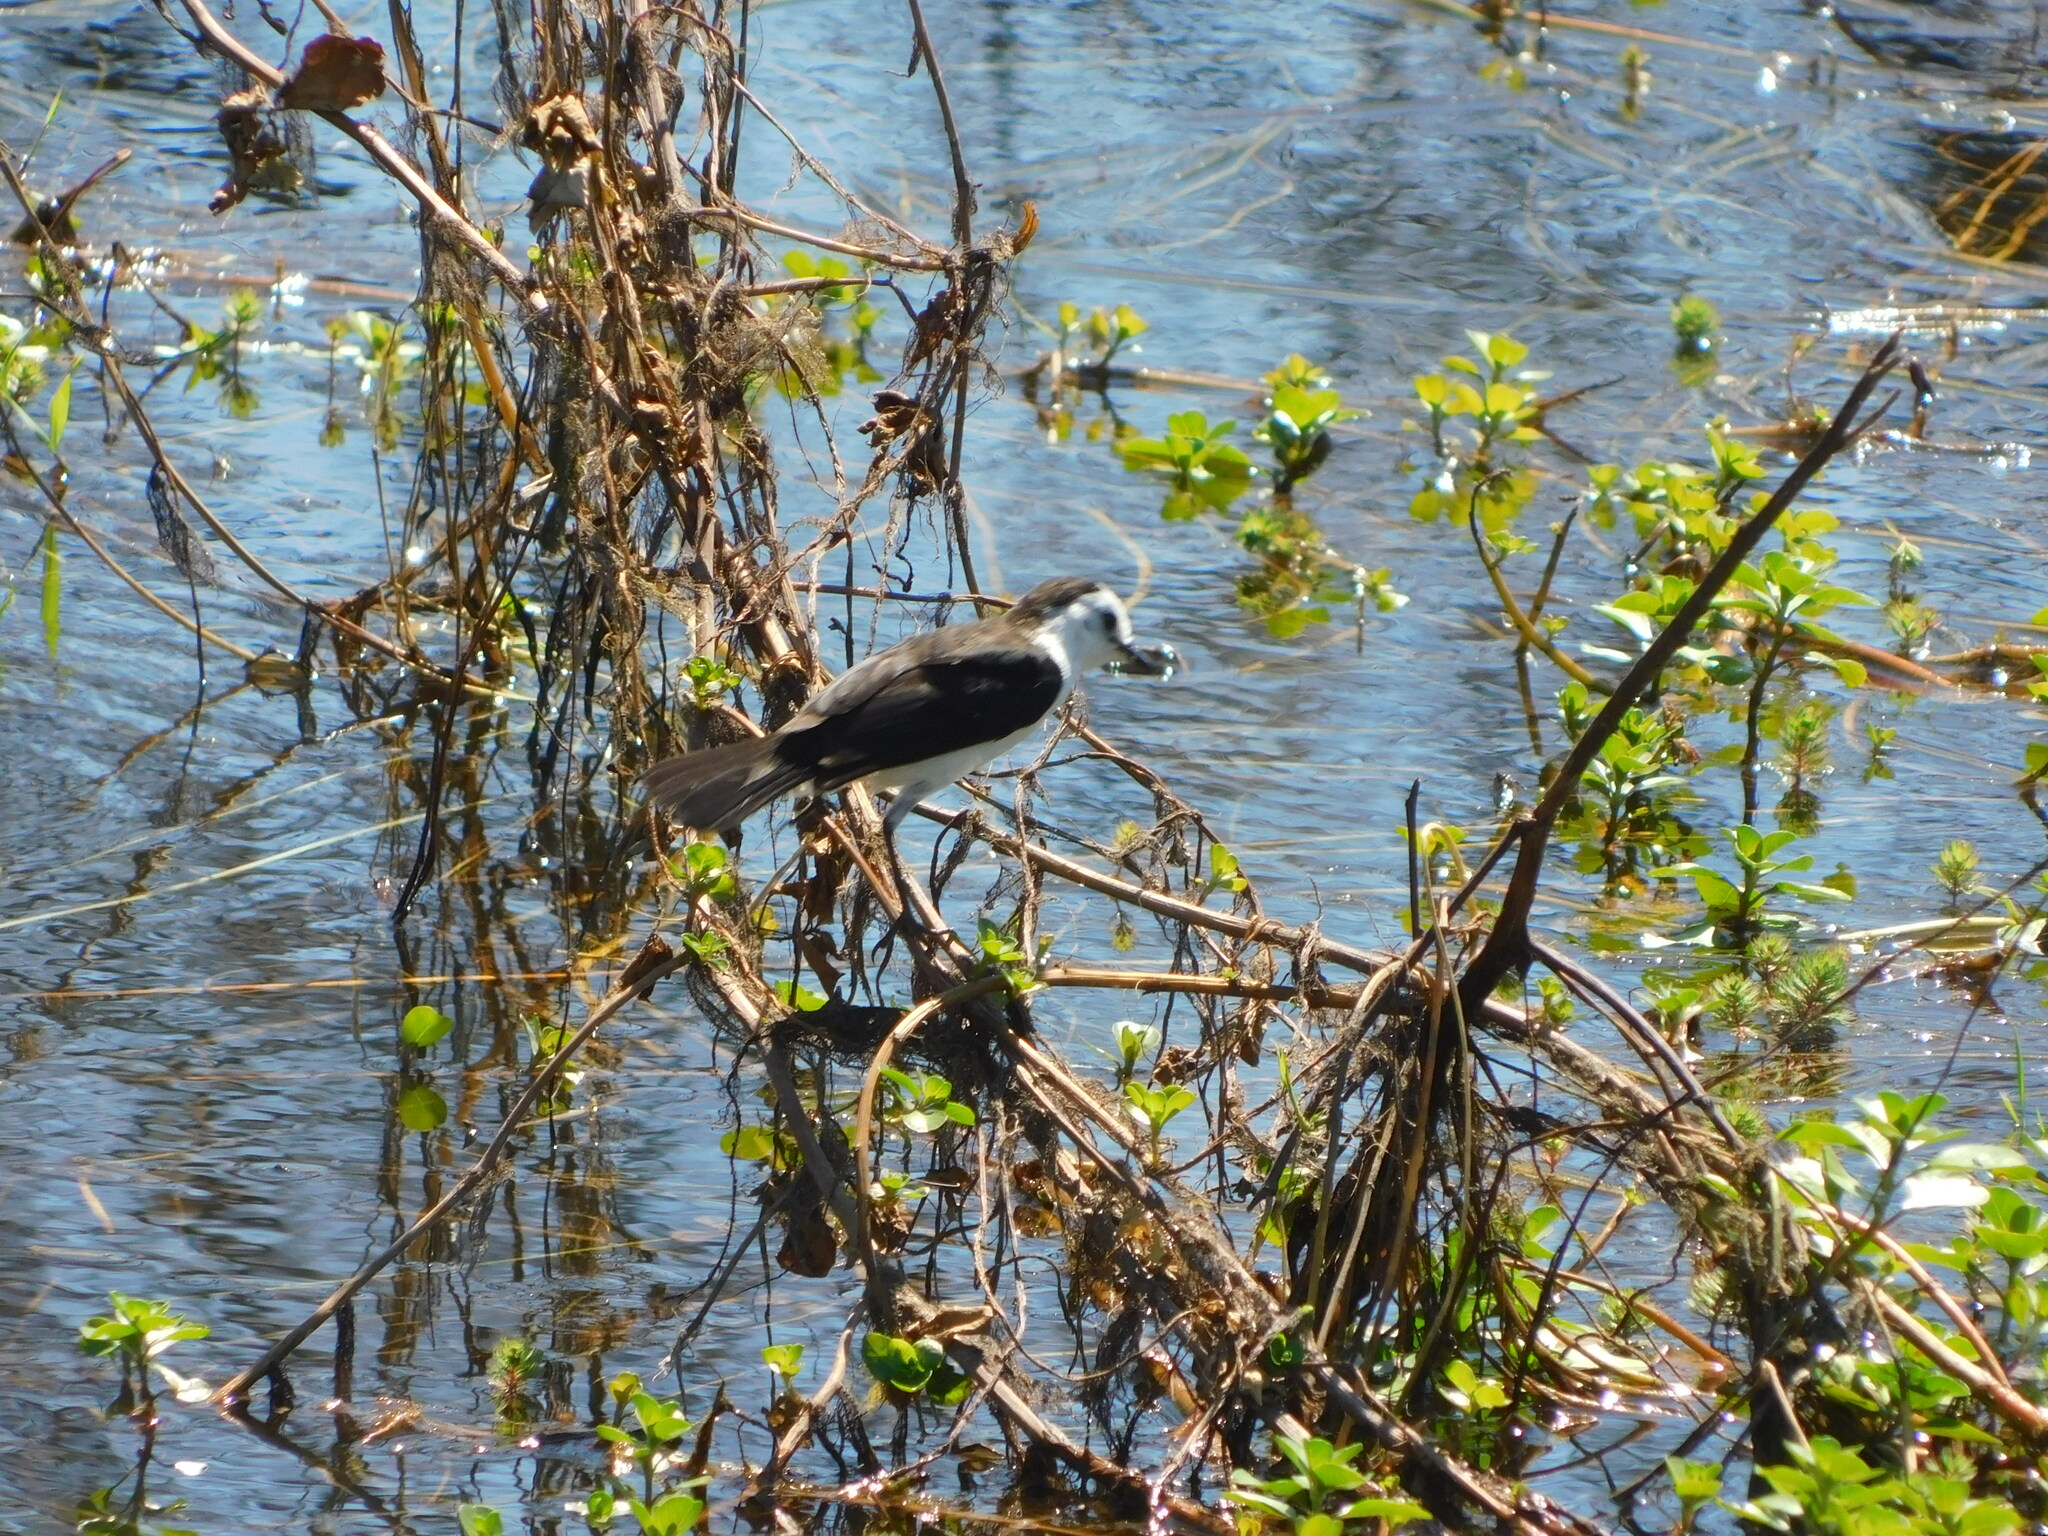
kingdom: Animalia
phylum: Chordata
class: Aves
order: Passeriformes
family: Tyrannidae
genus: Fluvicola
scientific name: Fluvicola pica
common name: Pied water-tyrant
